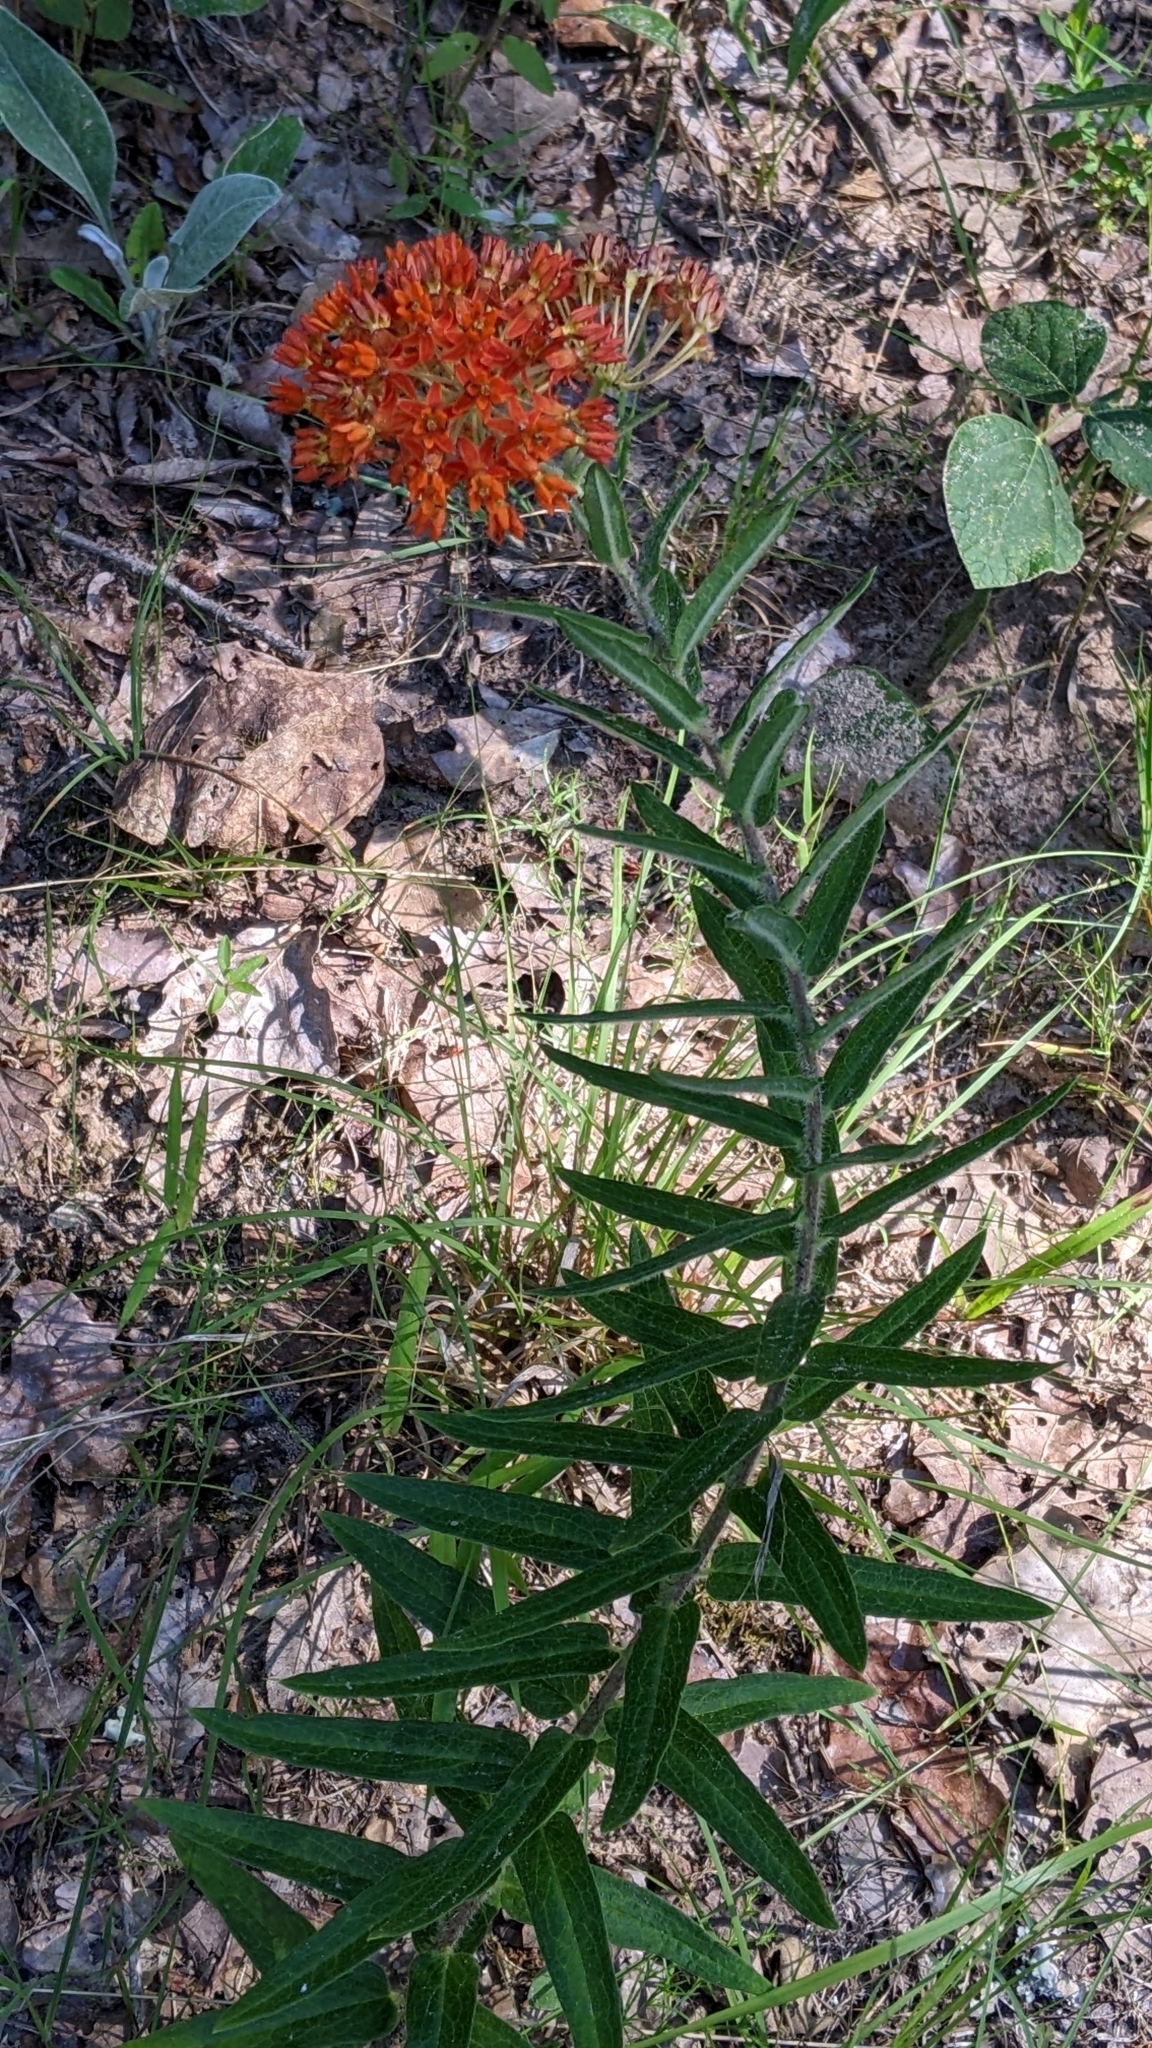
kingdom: Plantae
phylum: Tracheophyta
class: Magnoliopsida
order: Gentianales
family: Apocynaceae
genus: Asclepias
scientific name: Asclepias tuberosa
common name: Butterfly milkweed
